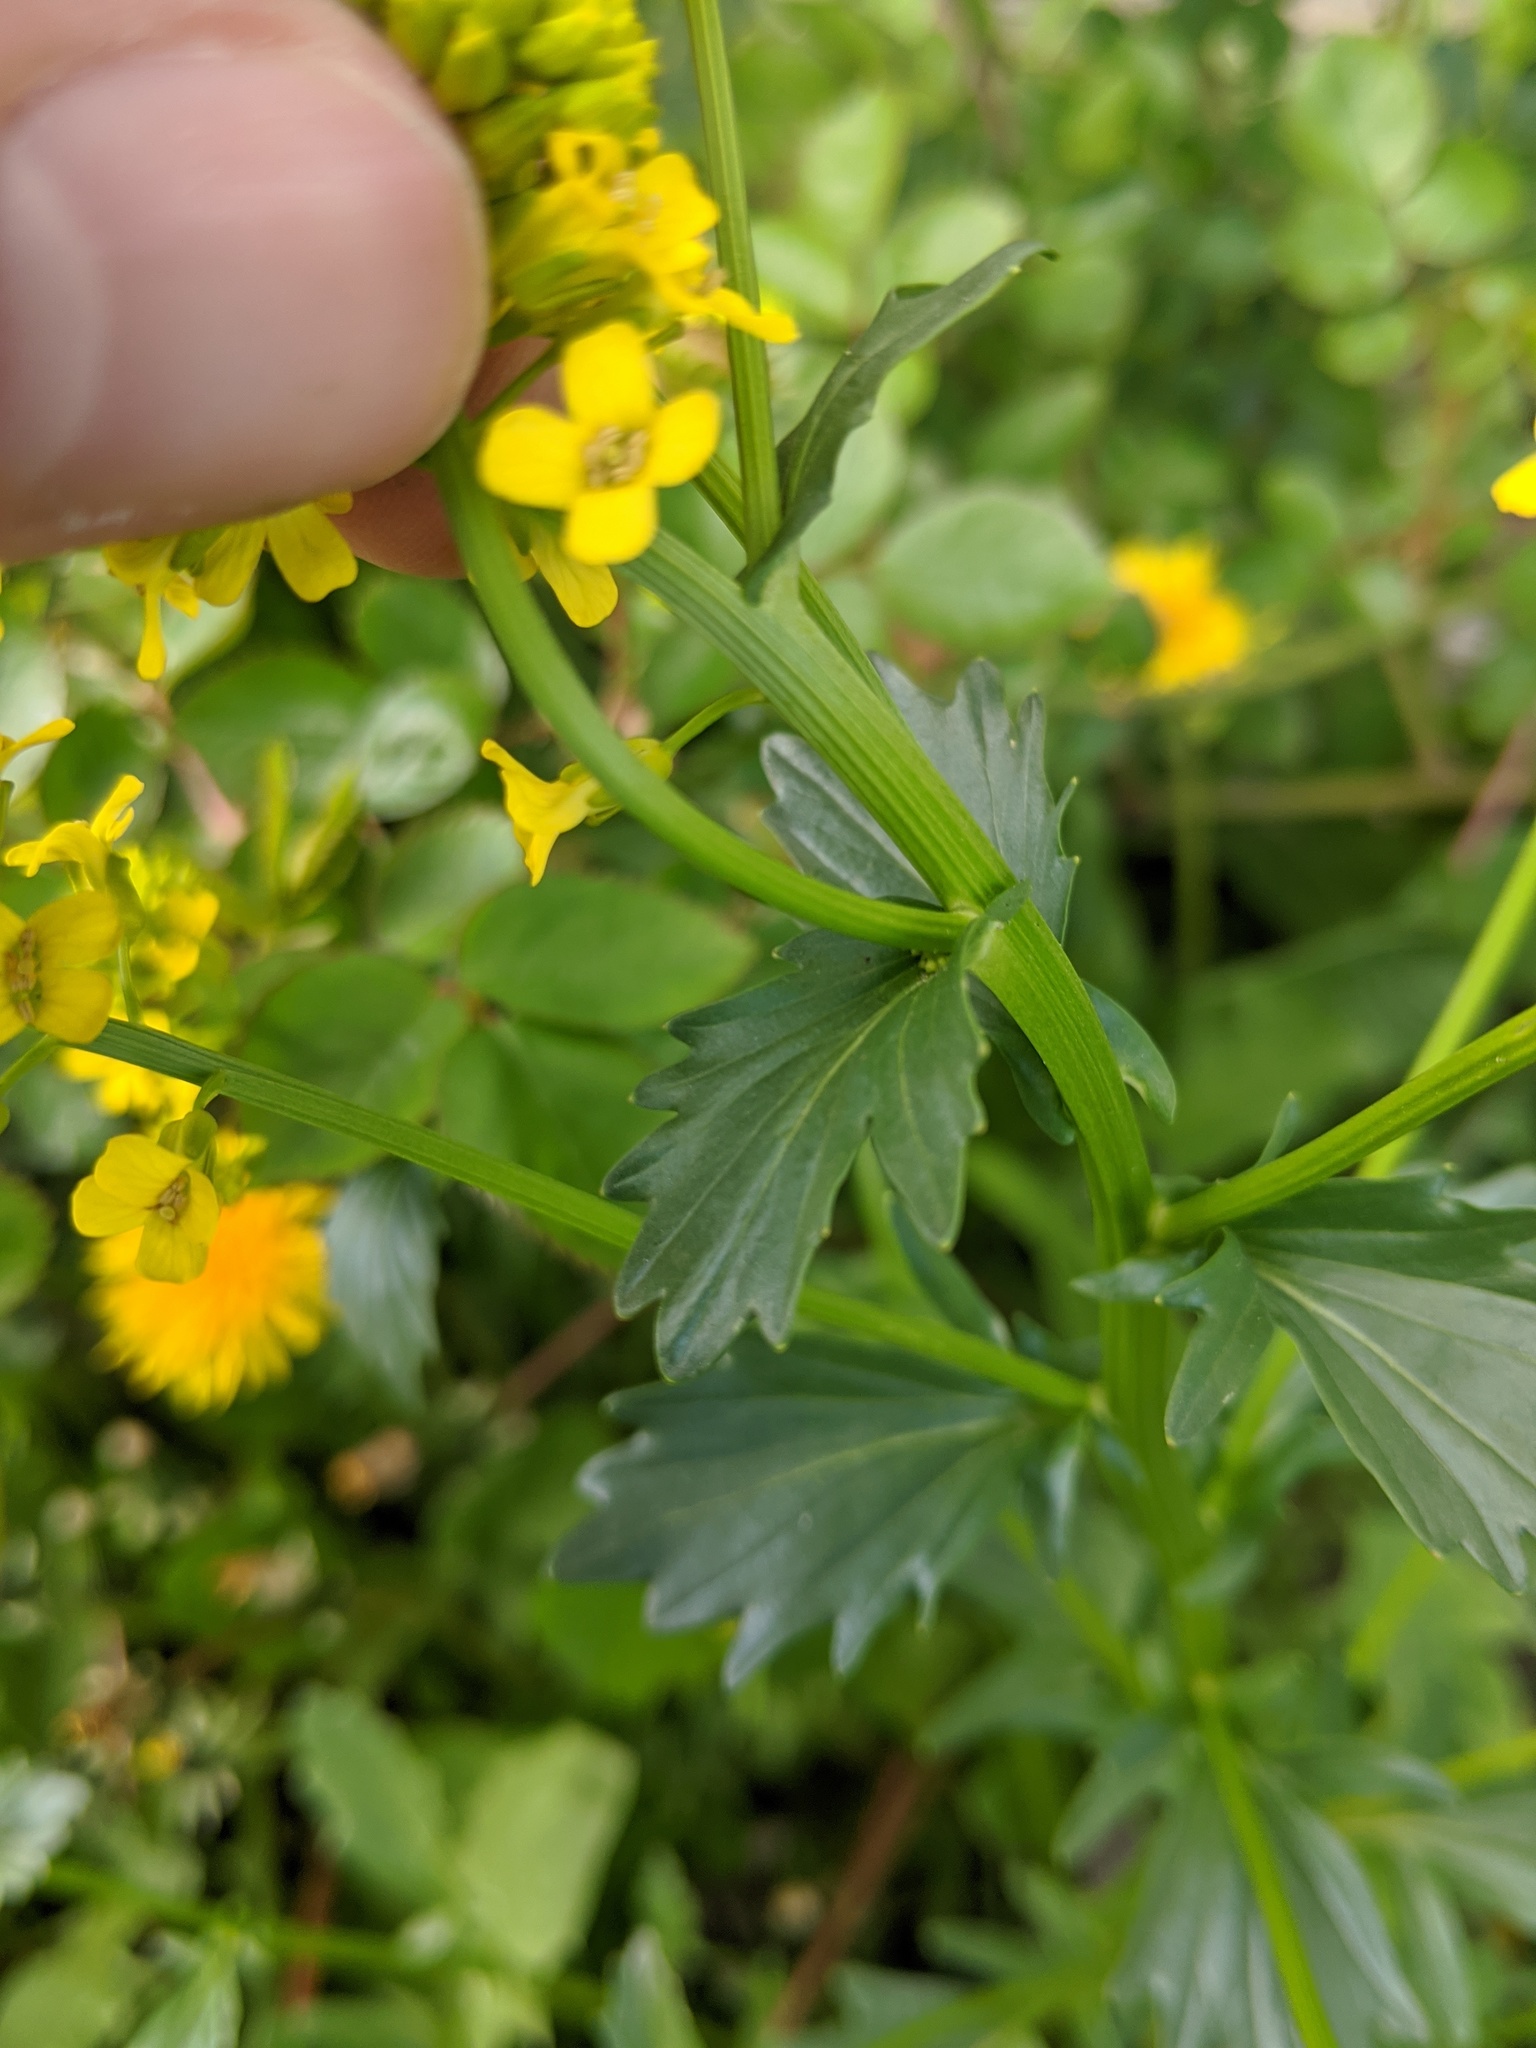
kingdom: Plantae
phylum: Tracheophyta
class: Magnoliopsida
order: Brassicales
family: Brassicaceae
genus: Barbarea
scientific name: Barbarea vulgaris
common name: Cressy-greens
